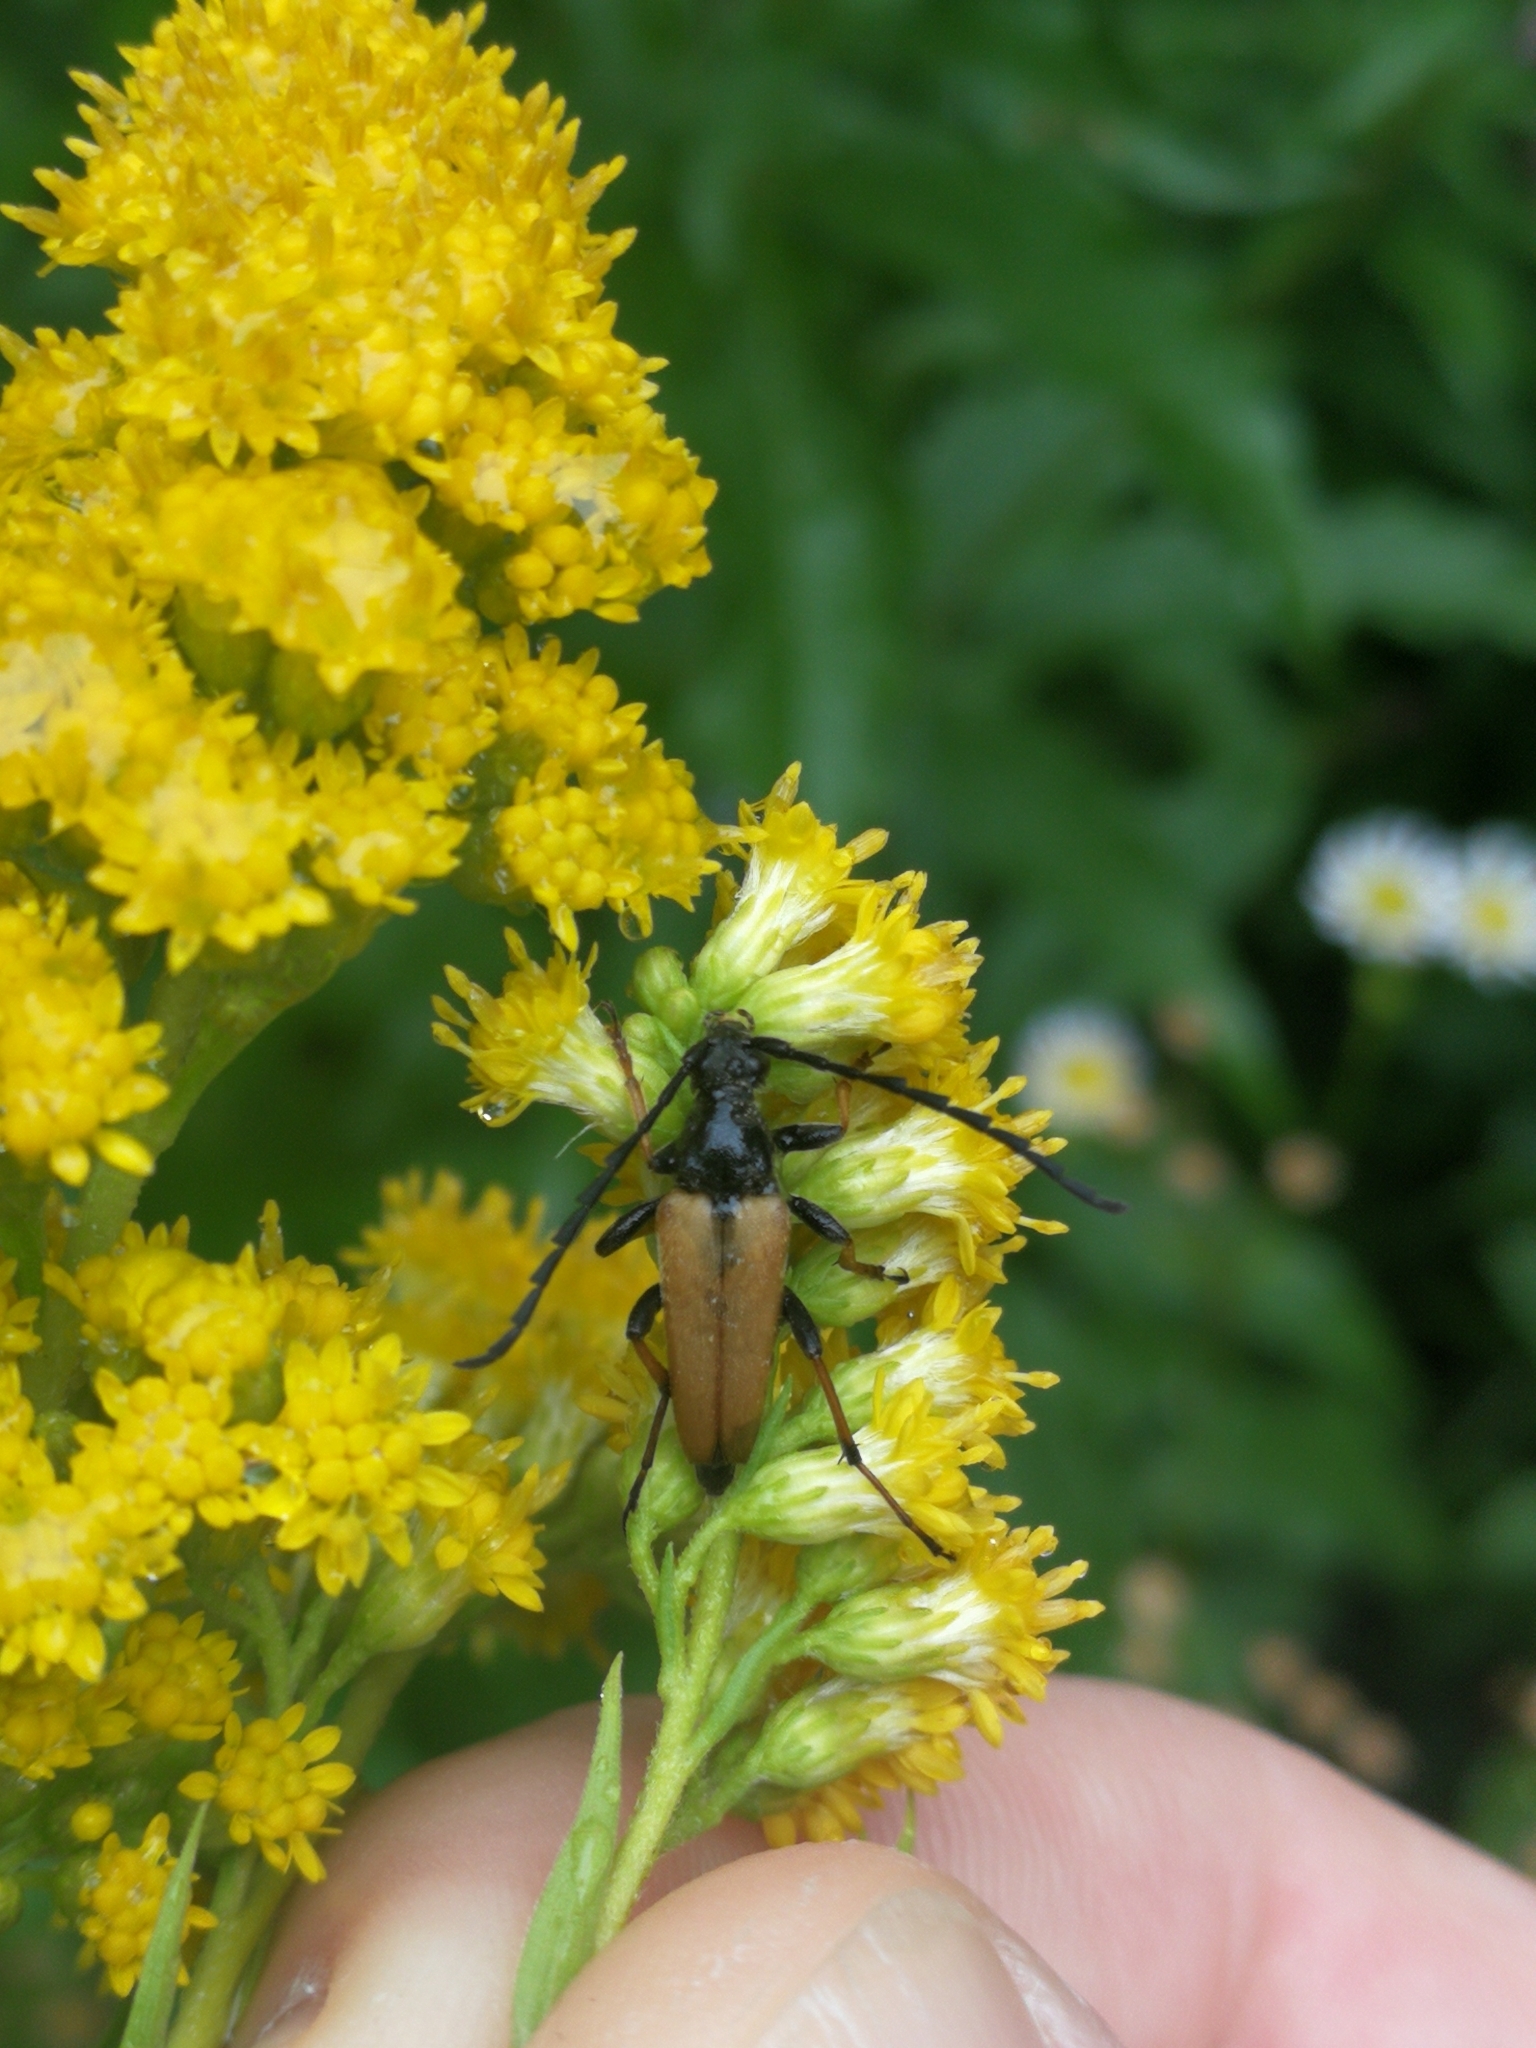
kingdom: Animalia
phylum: Arthropoda
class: Insecta
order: Coleoptera
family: Cerambycidae
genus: Stictoleptura
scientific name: Stictoleptura rubra
